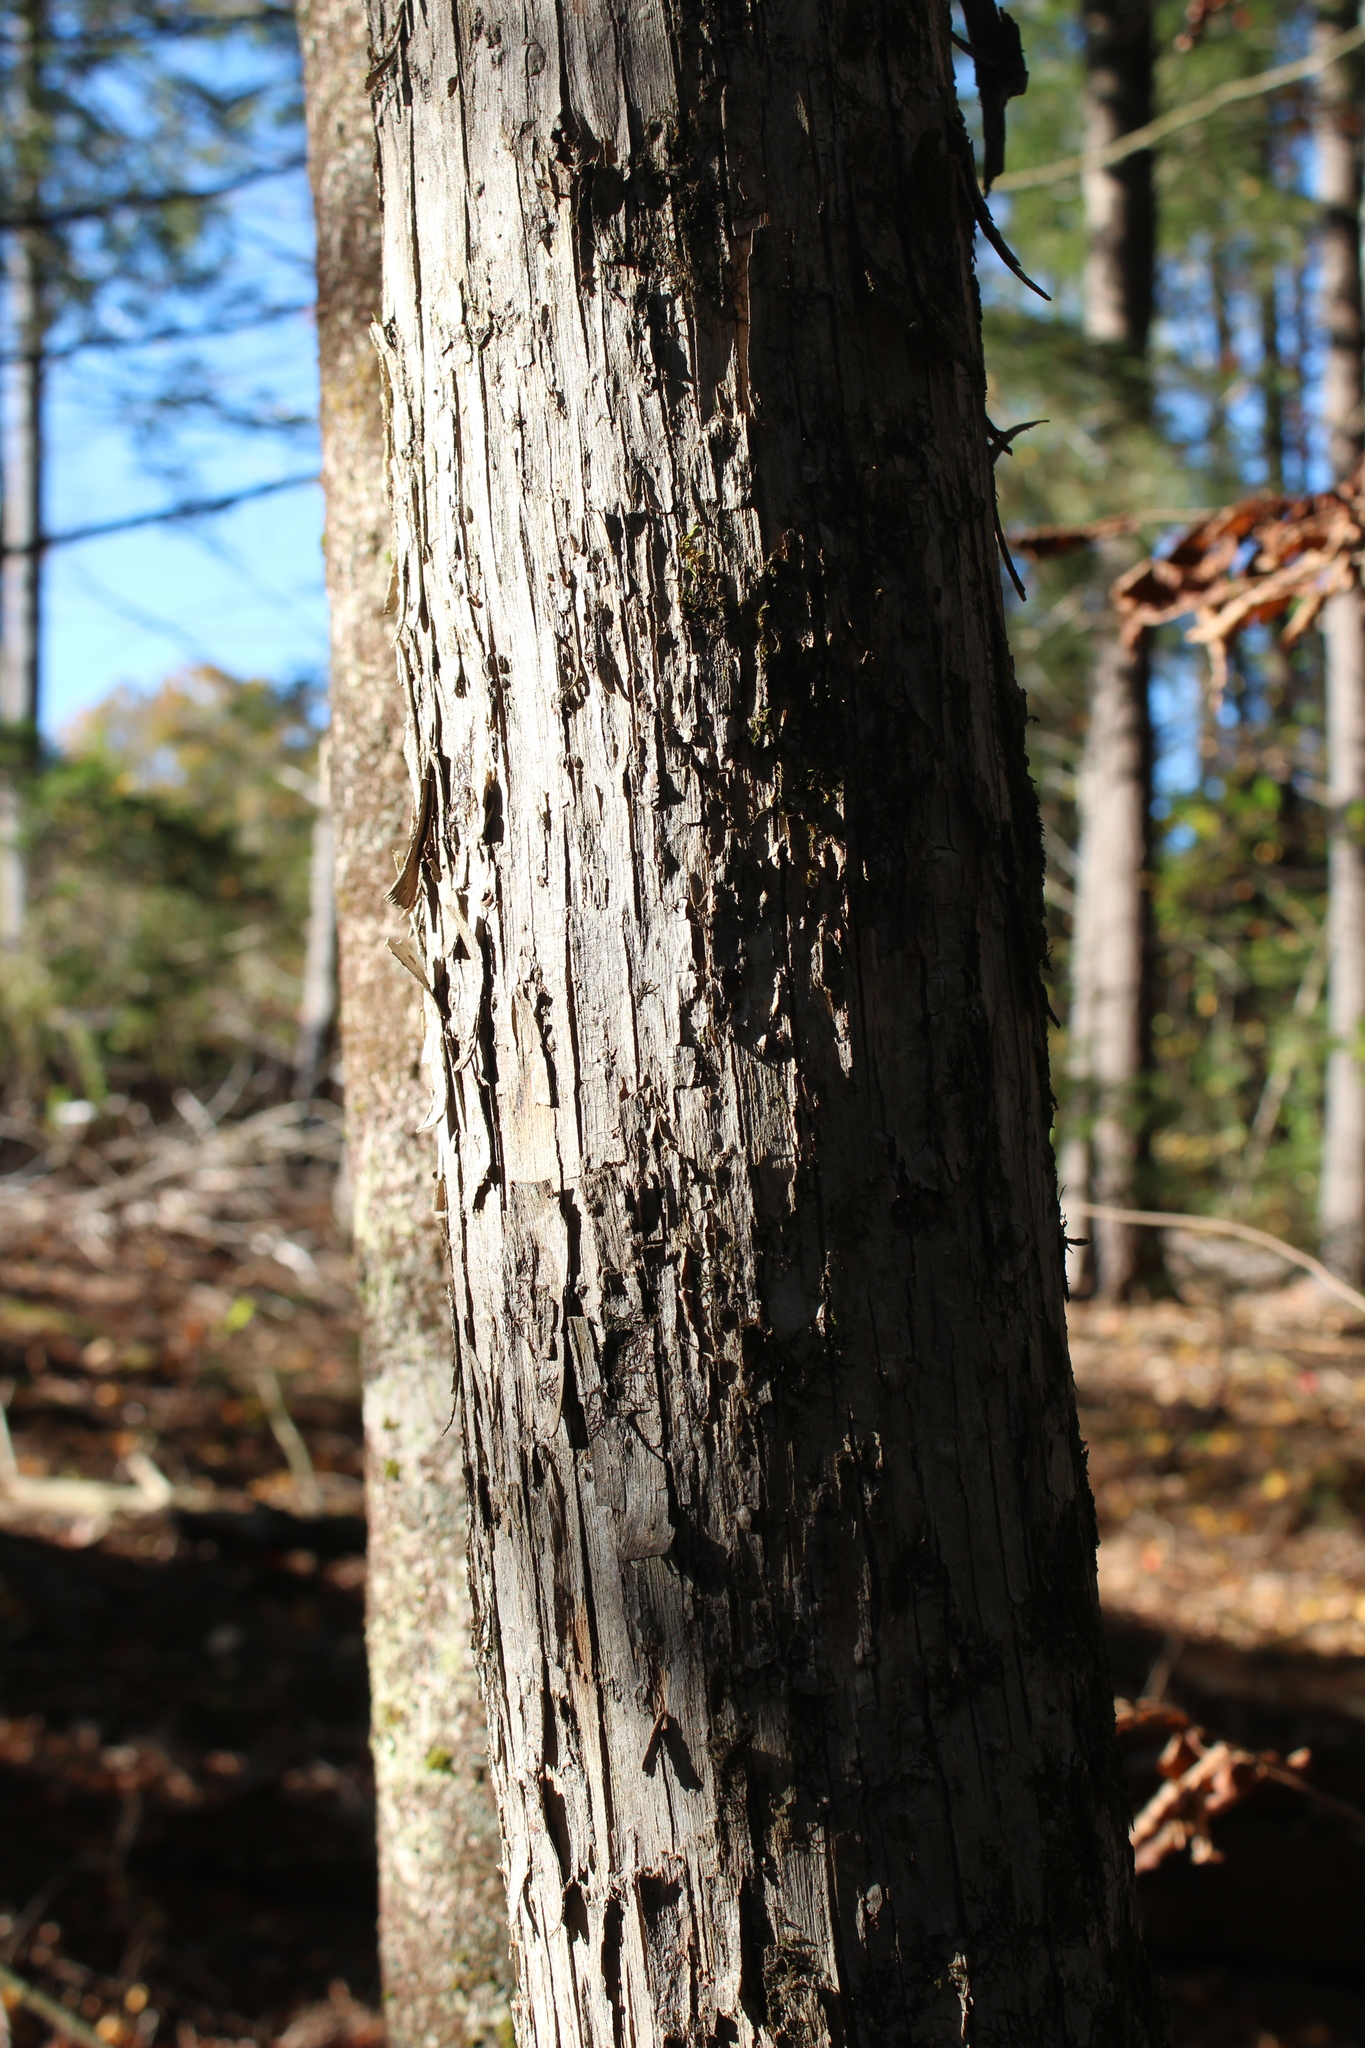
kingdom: Plantae
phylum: Tracheophyta
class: Magnoliopsida
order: Fagales
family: Betulaceae
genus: Ostrya
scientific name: Ostrya virginiana
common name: Ironwood
